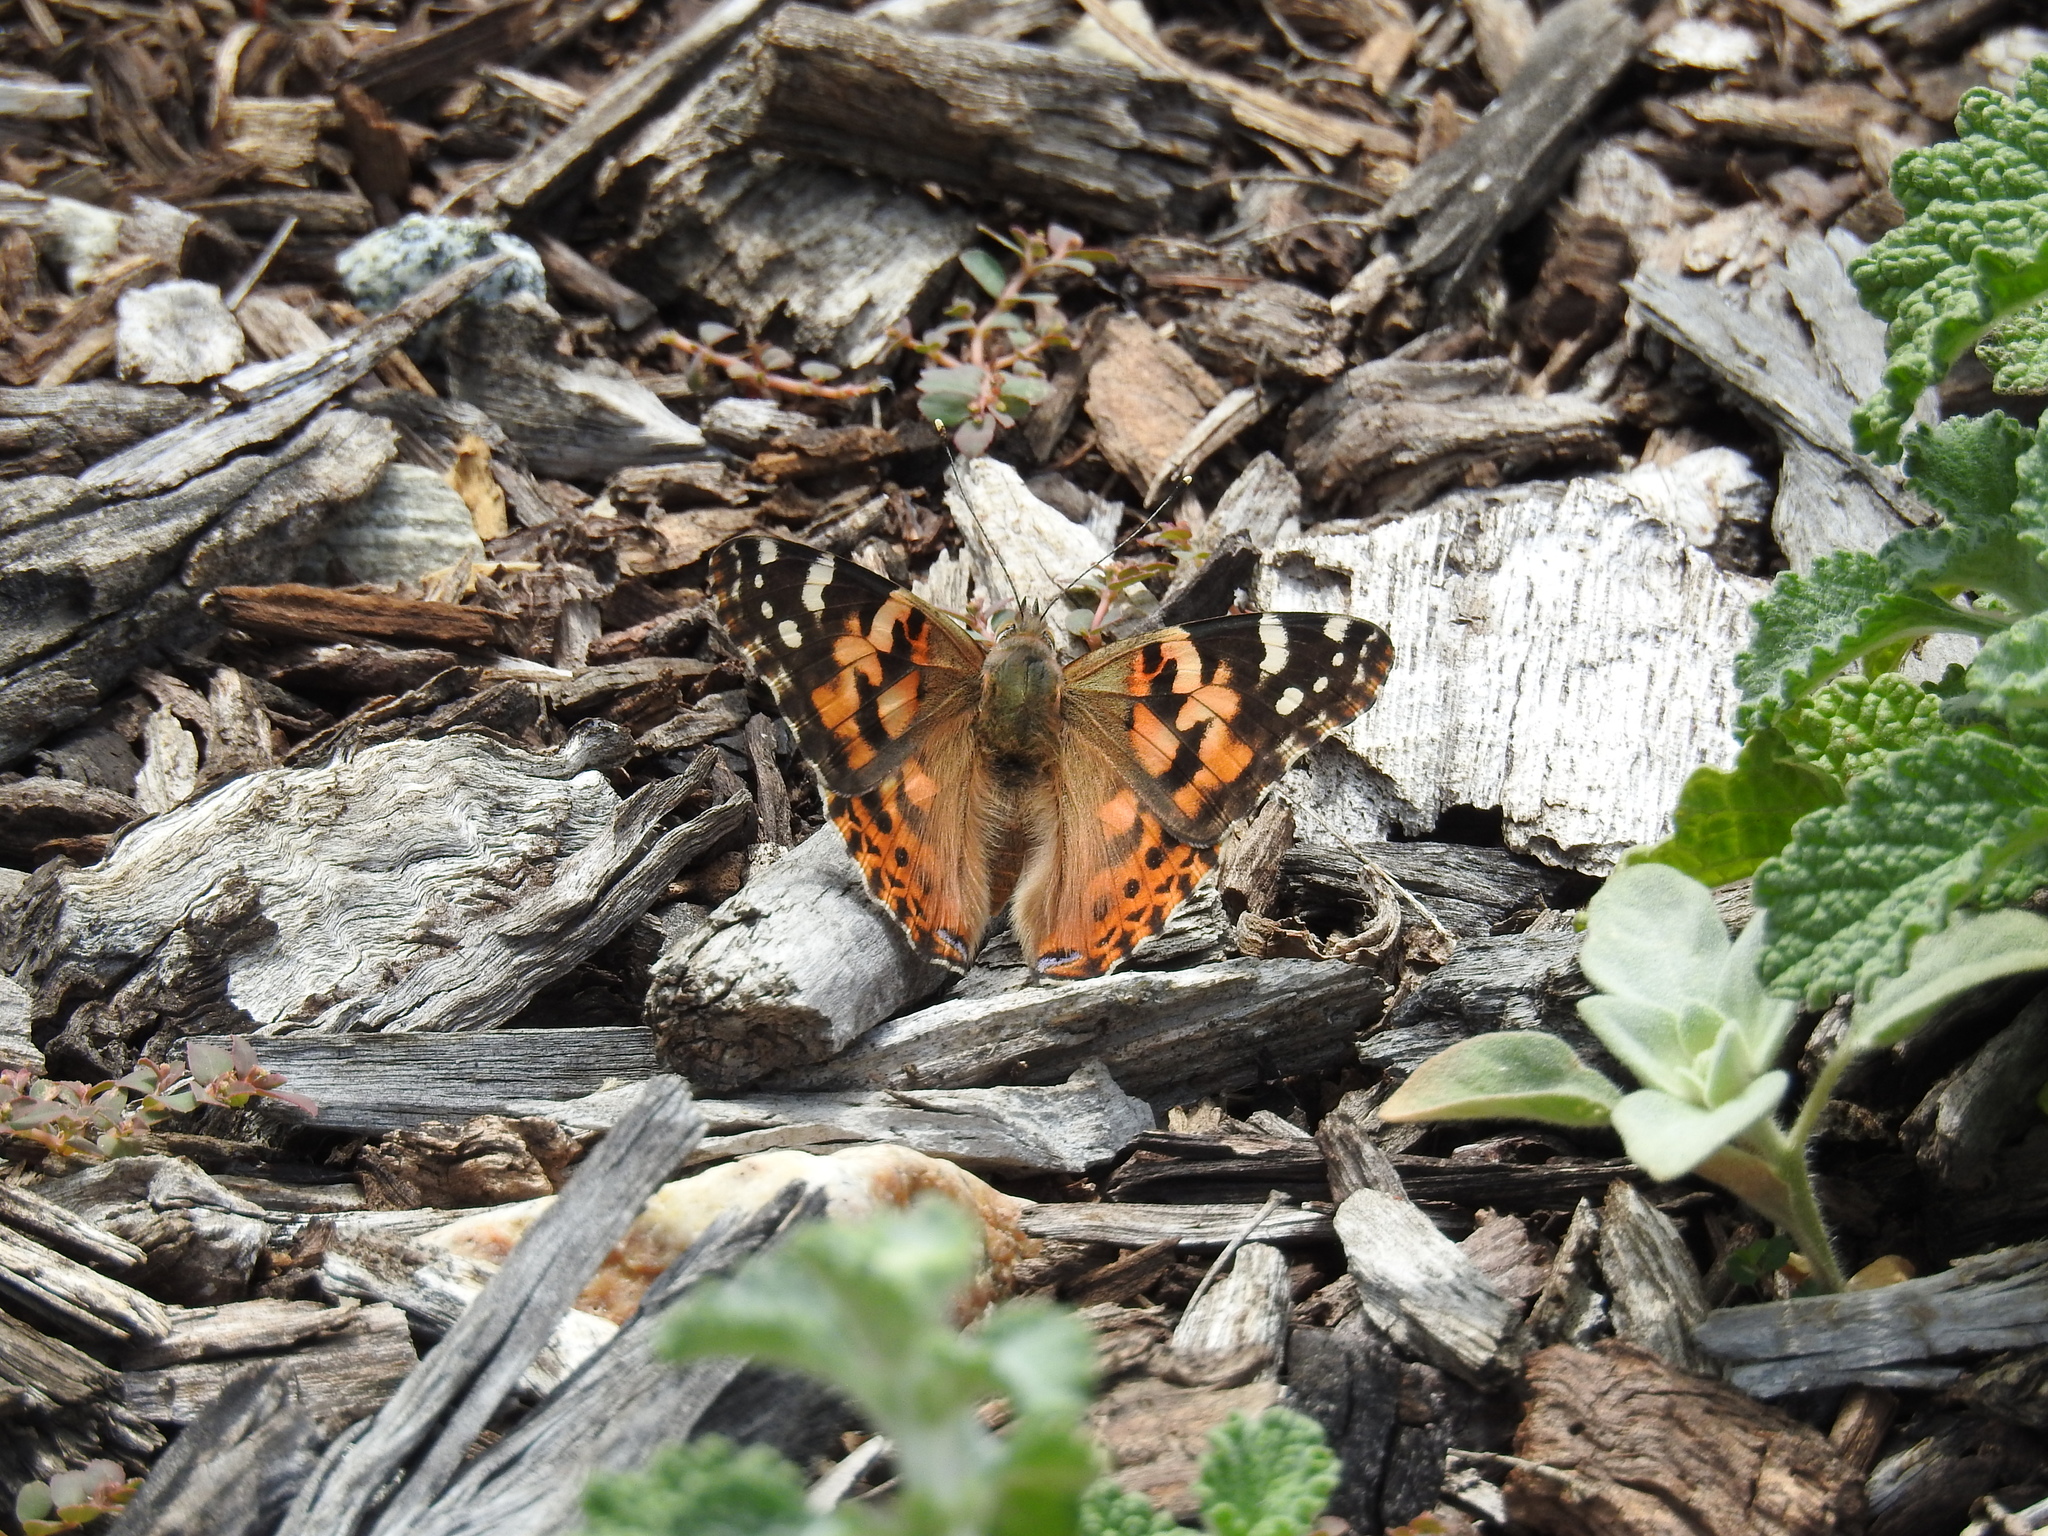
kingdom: Animalia
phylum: Arthropoda
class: Insecta
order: Lepidoptera
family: Nymphalidae
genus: Vanessa
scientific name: Vanessa cardui
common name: Painted lady
